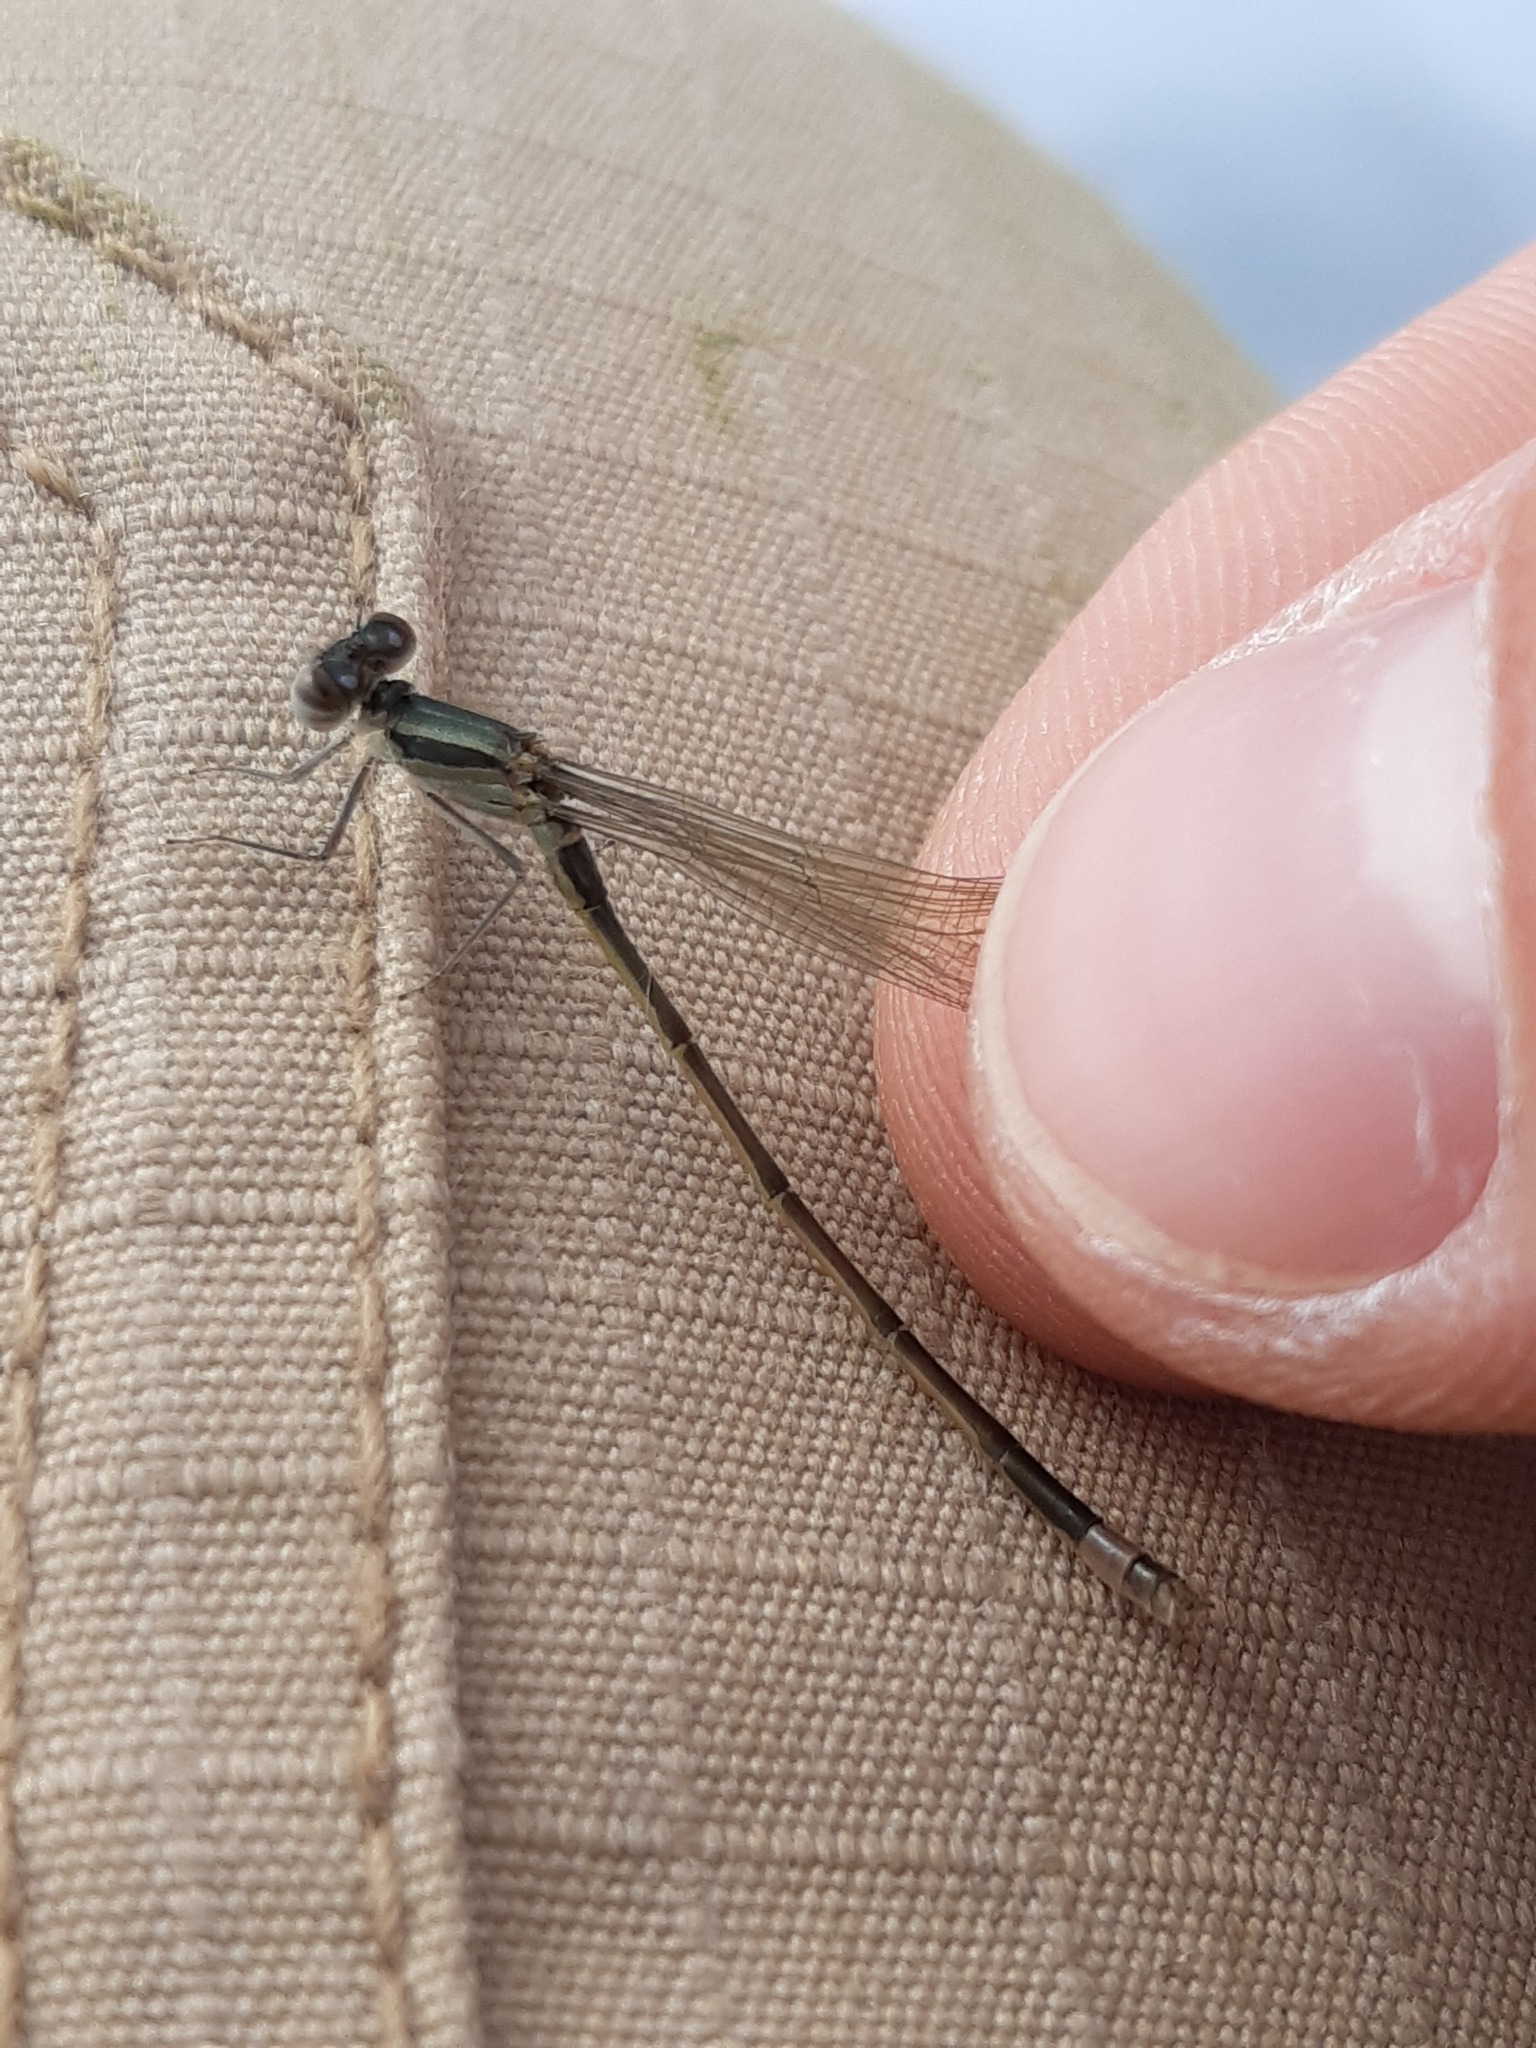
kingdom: Animalia
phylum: Arthropoda
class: Insecta
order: Odonata
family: Coenagrionidae
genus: Ischnura
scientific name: Ischnura elegans
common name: Blue-tailed damselfly
